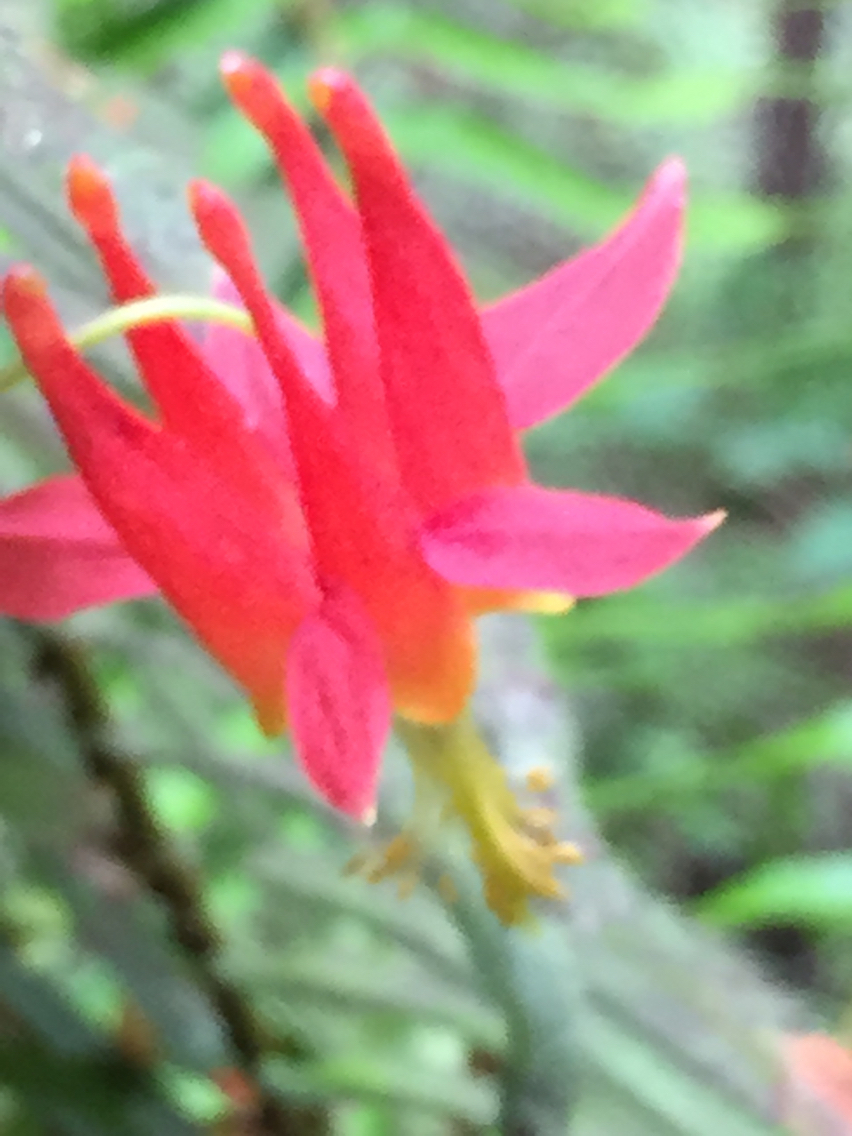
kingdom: Plantae
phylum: Tracheophyta
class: Magnoliopsida
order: Ranunculales
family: Ranunculaceae
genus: Aquilegia
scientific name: Aquilegia formosa
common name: Sitka columbine
